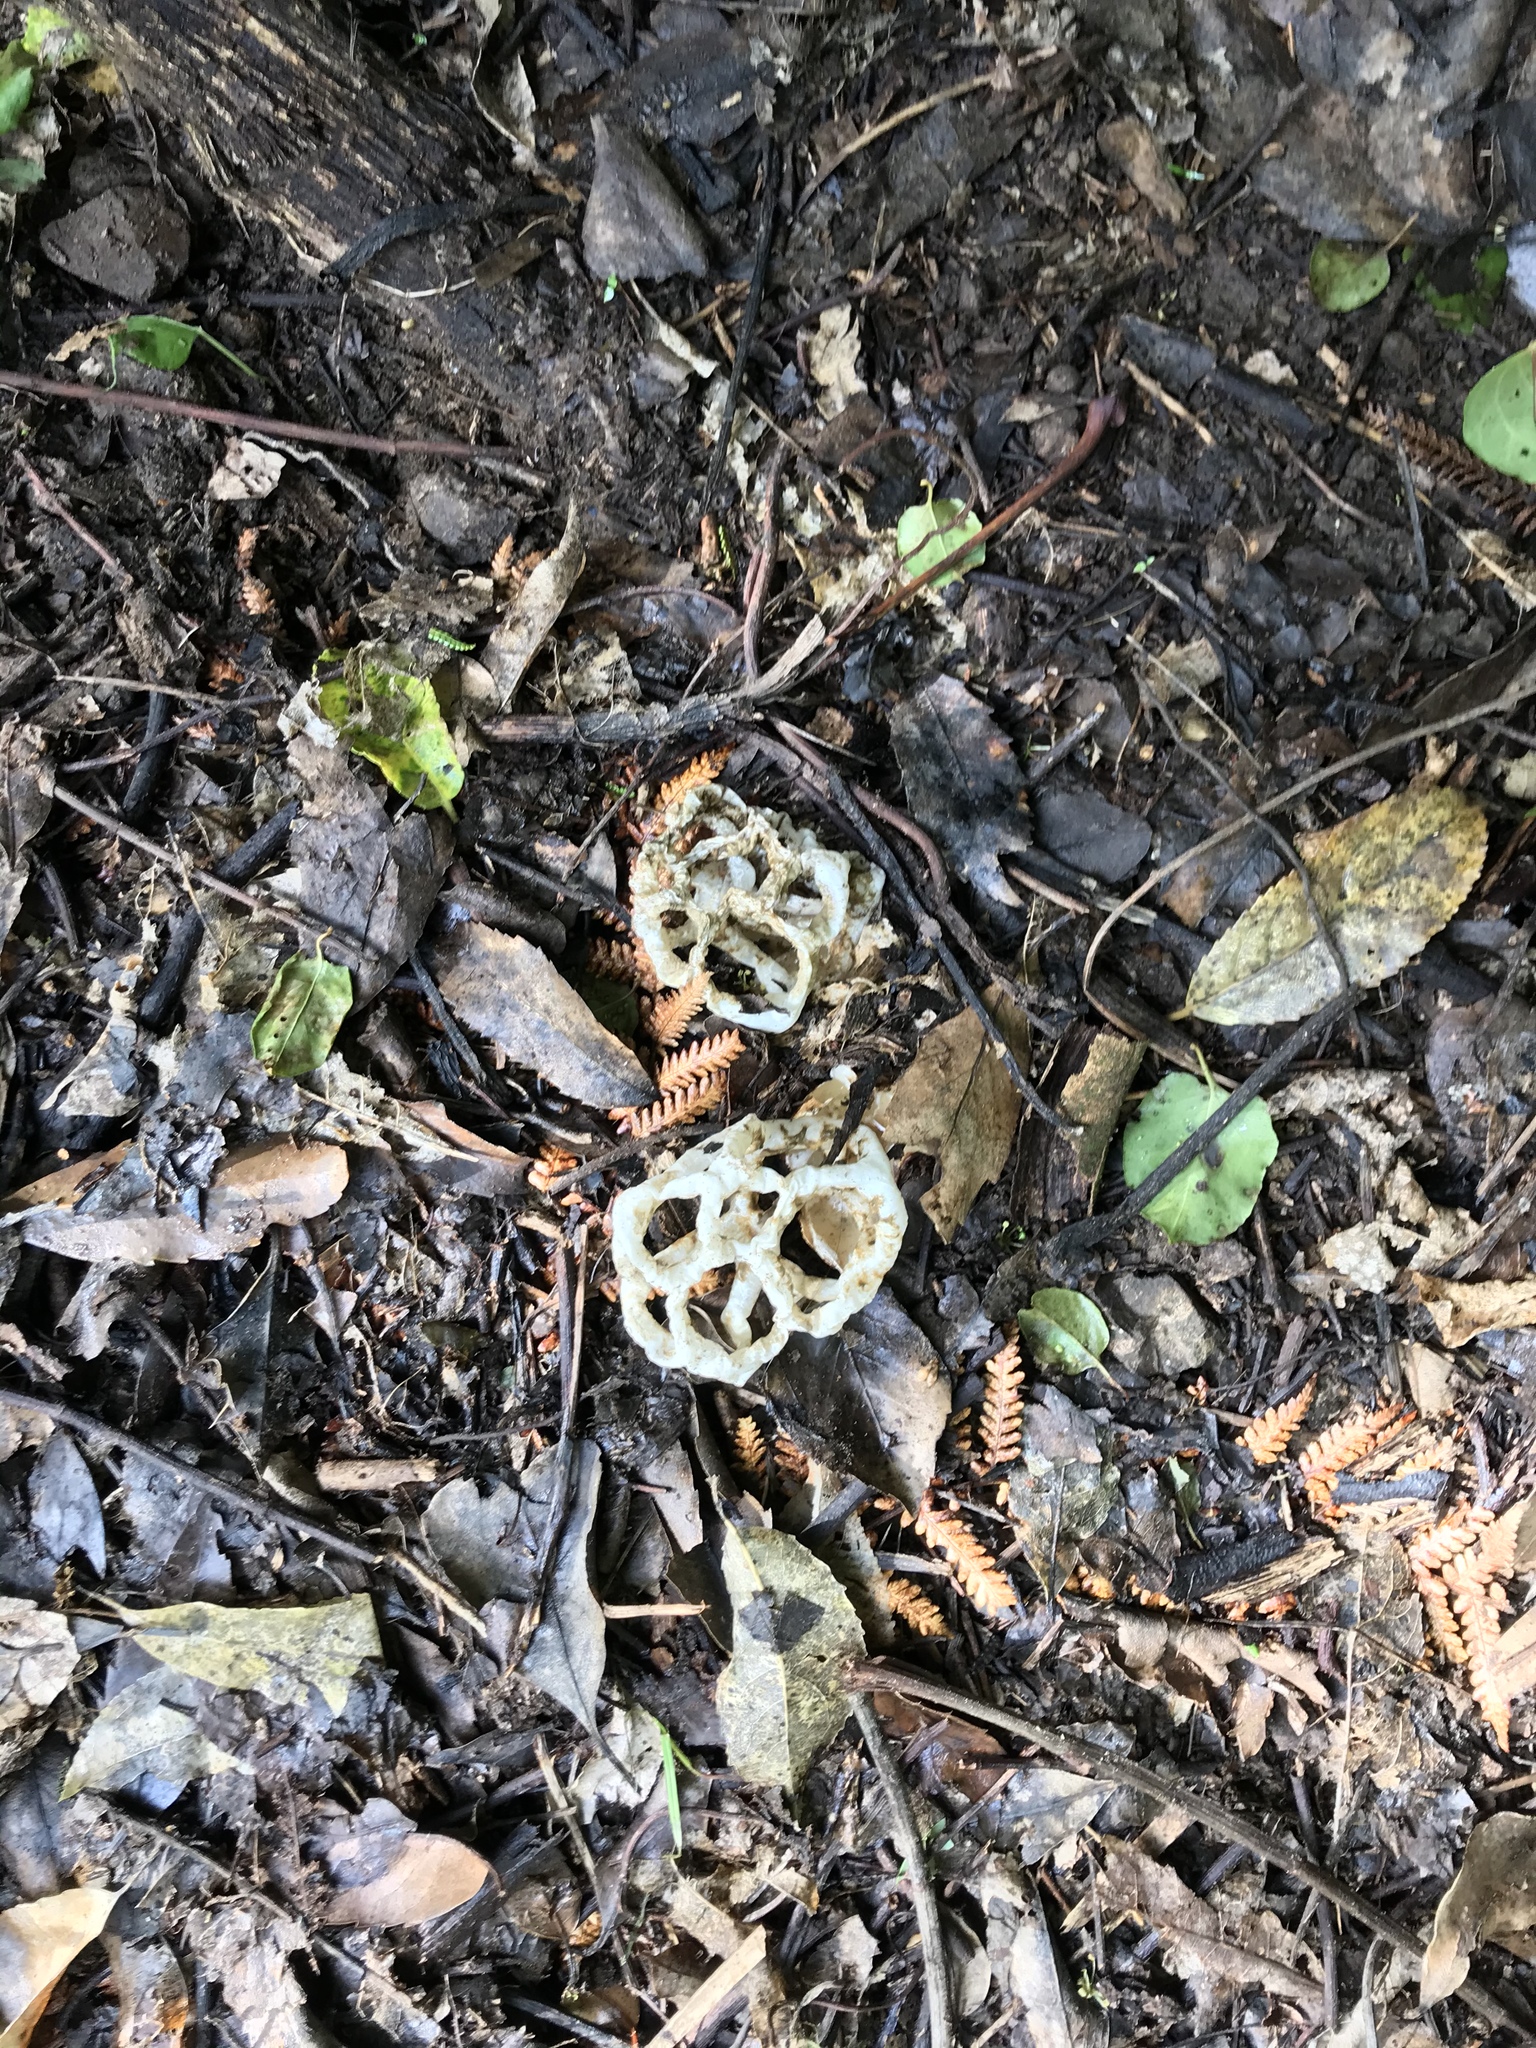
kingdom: Fungi
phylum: Basidiomycota
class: Agaricomycetes
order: Phallales
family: Phallaceae
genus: Ileodictyon
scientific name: Ileodictyon cibarium
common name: Basket fungus
